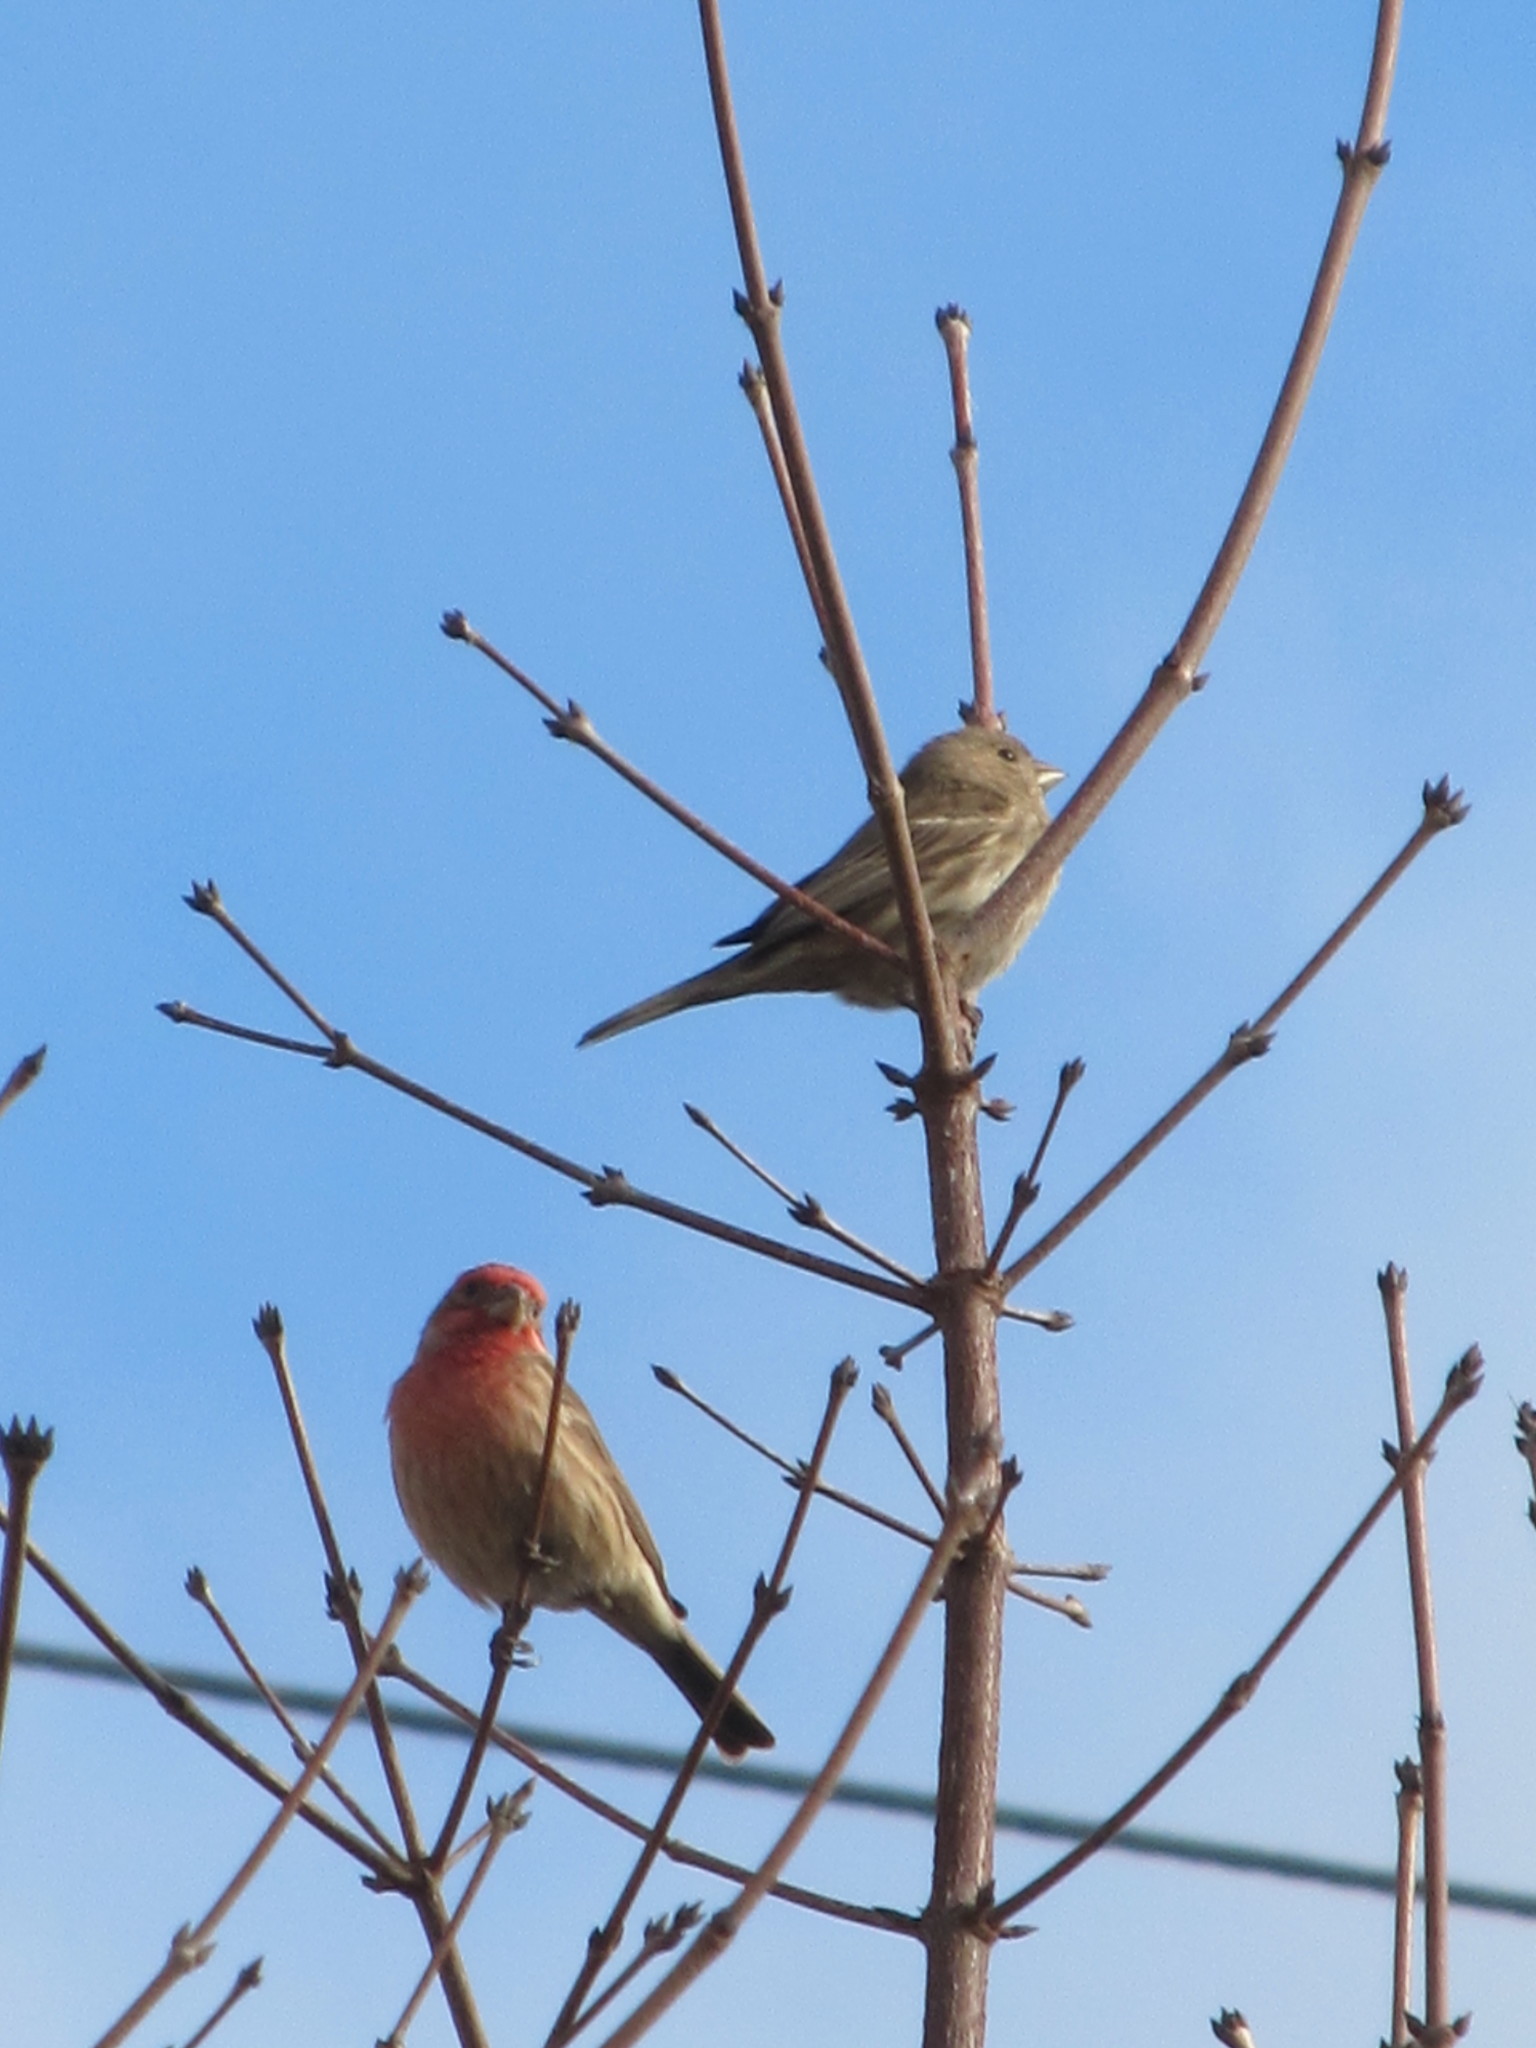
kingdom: Animalia
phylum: Chordata
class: Aves
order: Passeriformes
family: Fringillidae
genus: Haemorhous
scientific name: Haemorhous mexicanus
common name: House finch
